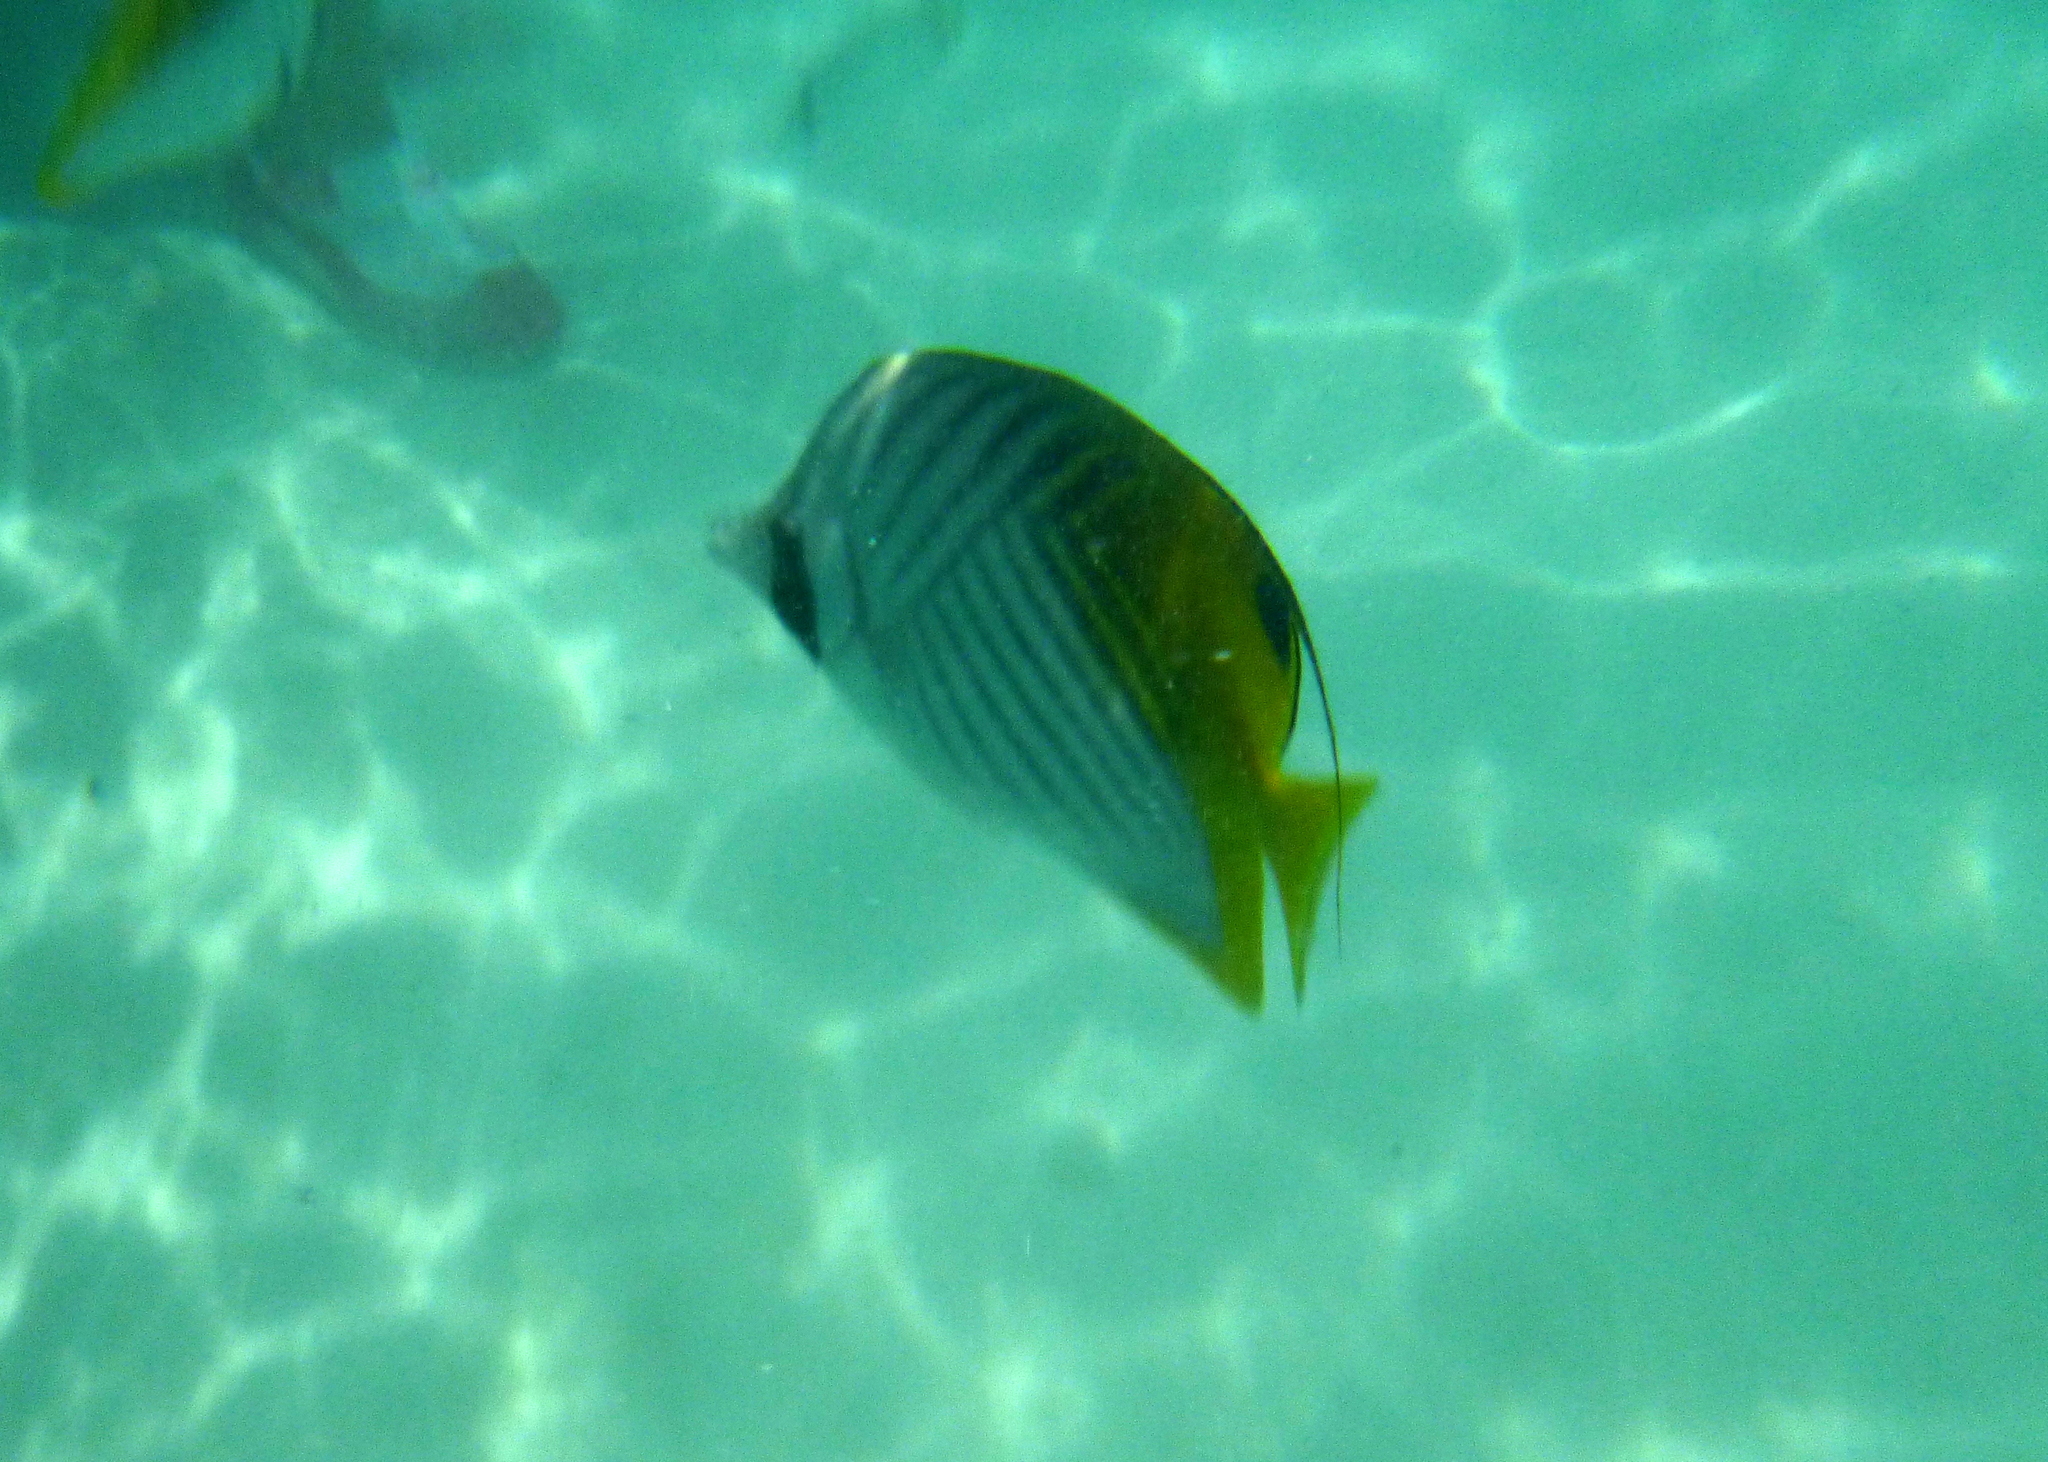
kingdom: Animalia
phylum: Chordata
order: Perciformes
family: Chaetodontidae
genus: Chaetodon
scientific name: Chaetodon auriga
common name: Threadfin butterflyfish
